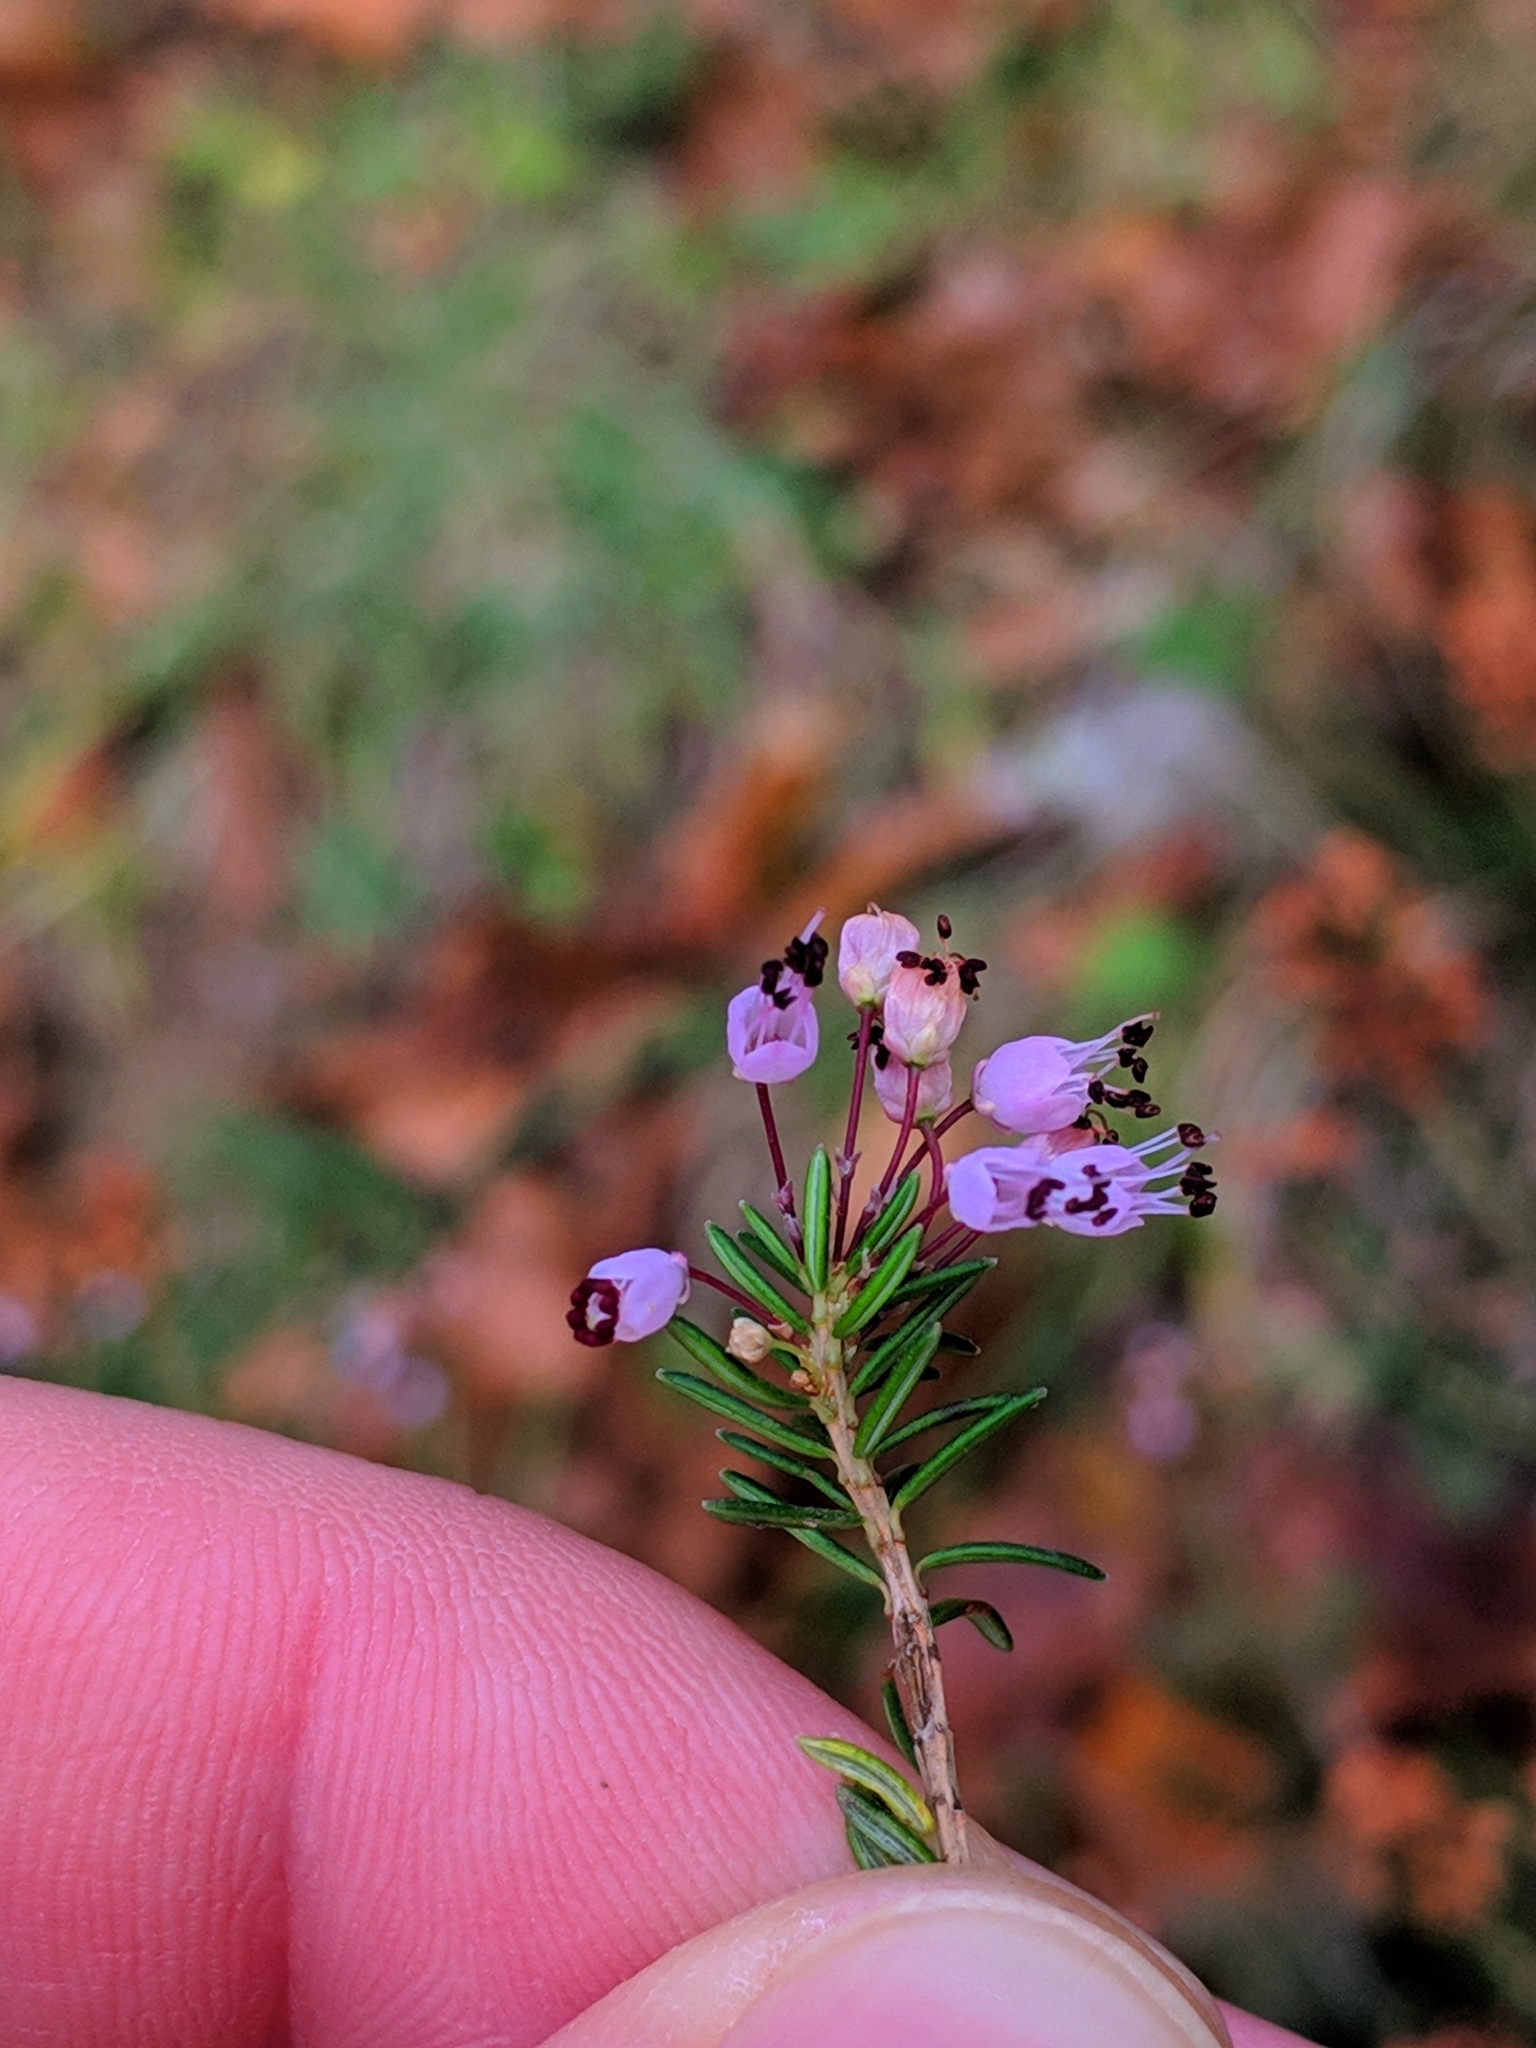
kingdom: Plantae
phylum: Tracheophyta
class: Magnoliopsida
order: Ericales
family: Ericaceae
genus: Erica
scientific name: Erica vagans
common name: Cornish heath
